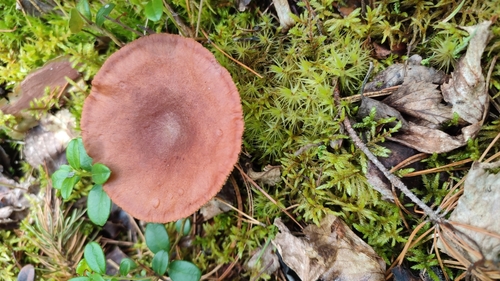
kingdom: Fungi
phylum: Basidiomycota
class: Agaricomycetes
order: Russulales
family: Russulaceae
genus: Lactarius
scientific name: Lactarius rufus
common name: Rufous milk-cap
